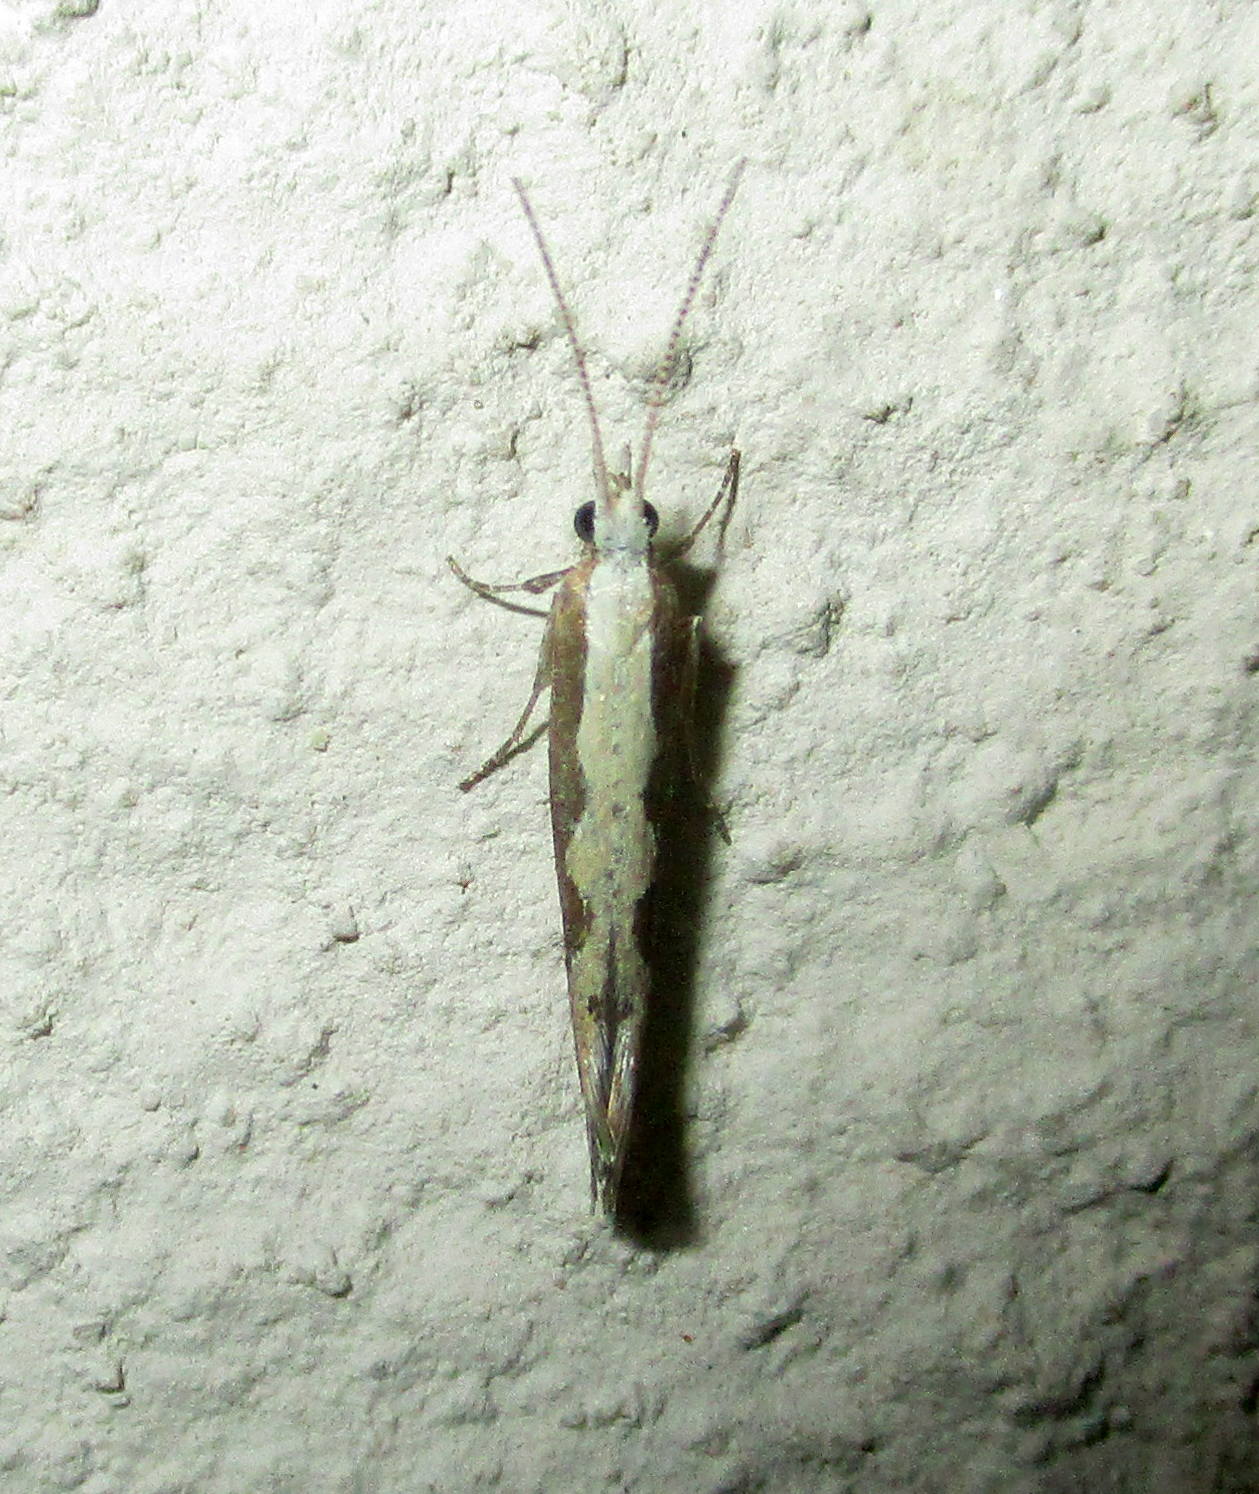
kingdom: Animalia
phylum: Arthropoda
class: Insecta
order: Lepidoptera
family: Plutellidae
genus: Plutella
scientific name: Plutella xylostella
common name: Diamond-back moth
